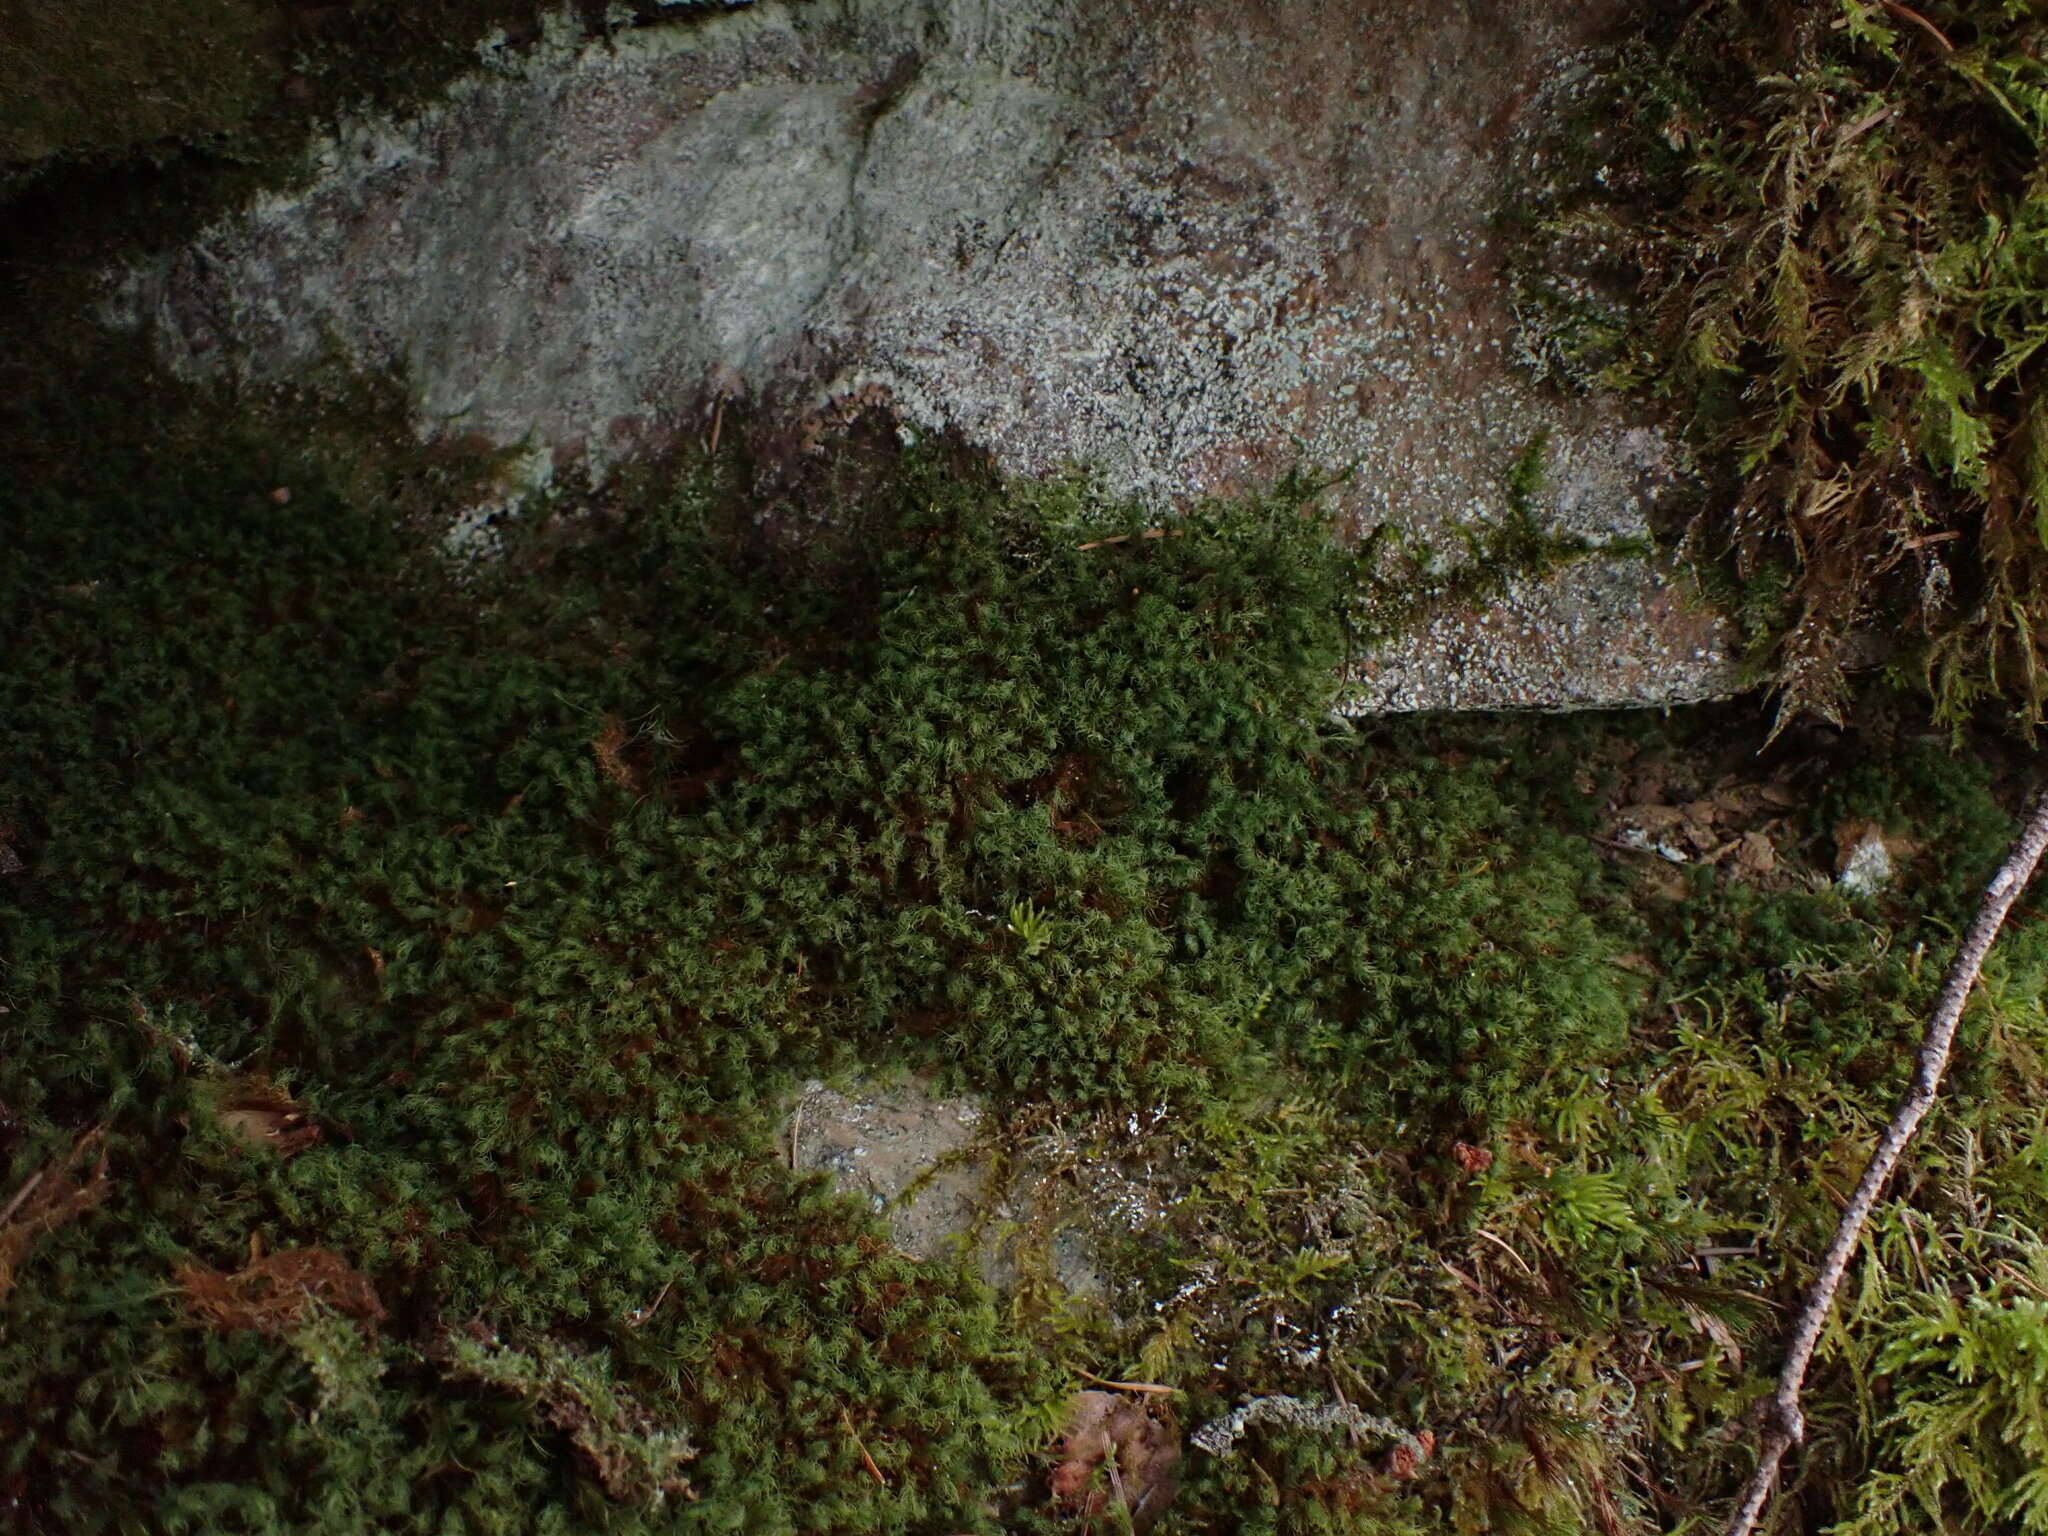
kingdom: Plantae
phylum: Bryophyta
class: Bryopsida
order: Bartramiales
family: Bartramiaceae
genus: Bartramia
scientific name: Bartramia ithyphylla
